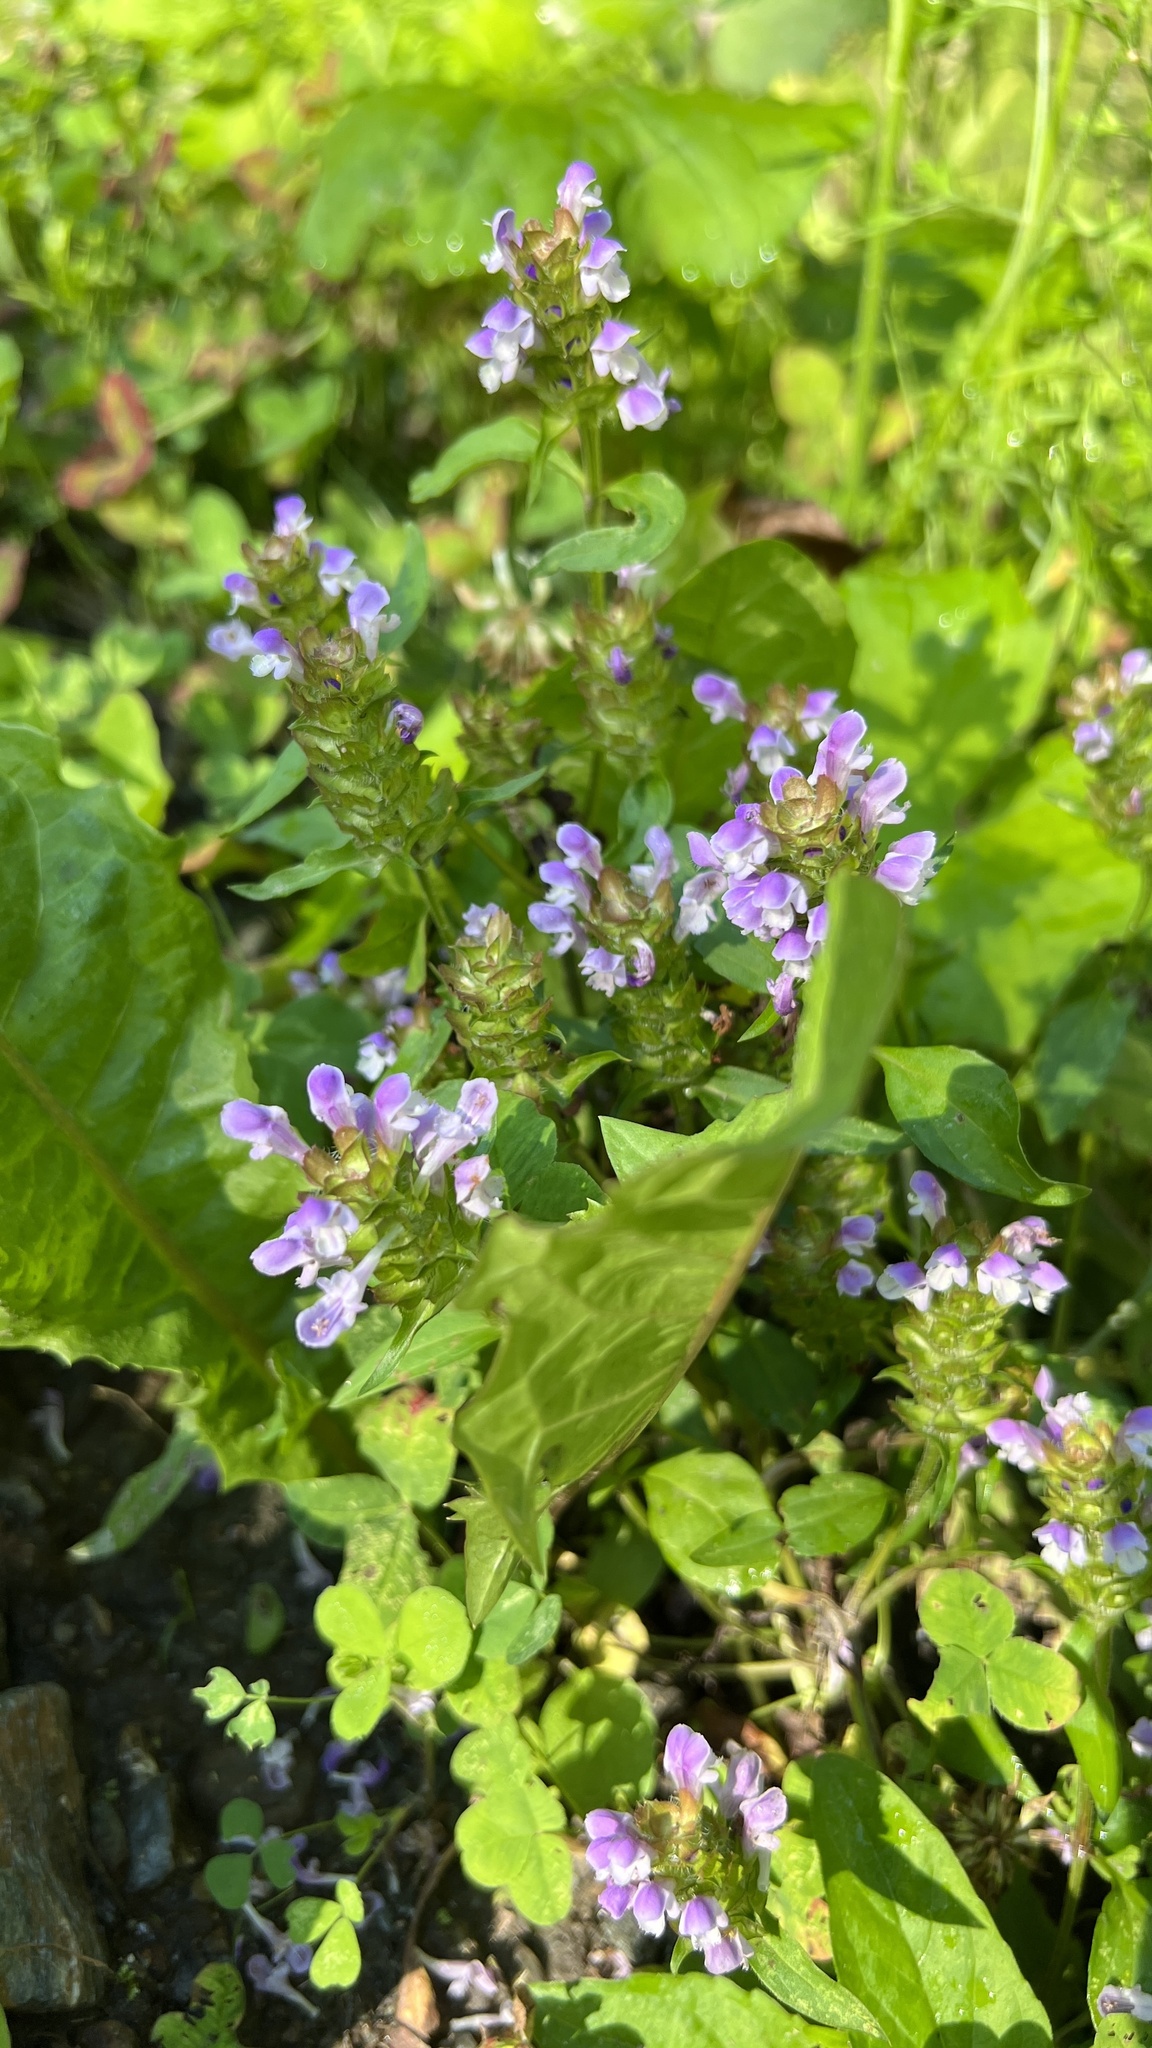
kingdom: Plantae
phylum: Tracheophyta
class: Magnoliopsida
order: Lamiales
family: Lamiaceae
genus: Prunella
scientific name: Prunella vulgaris
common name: Heal-all
